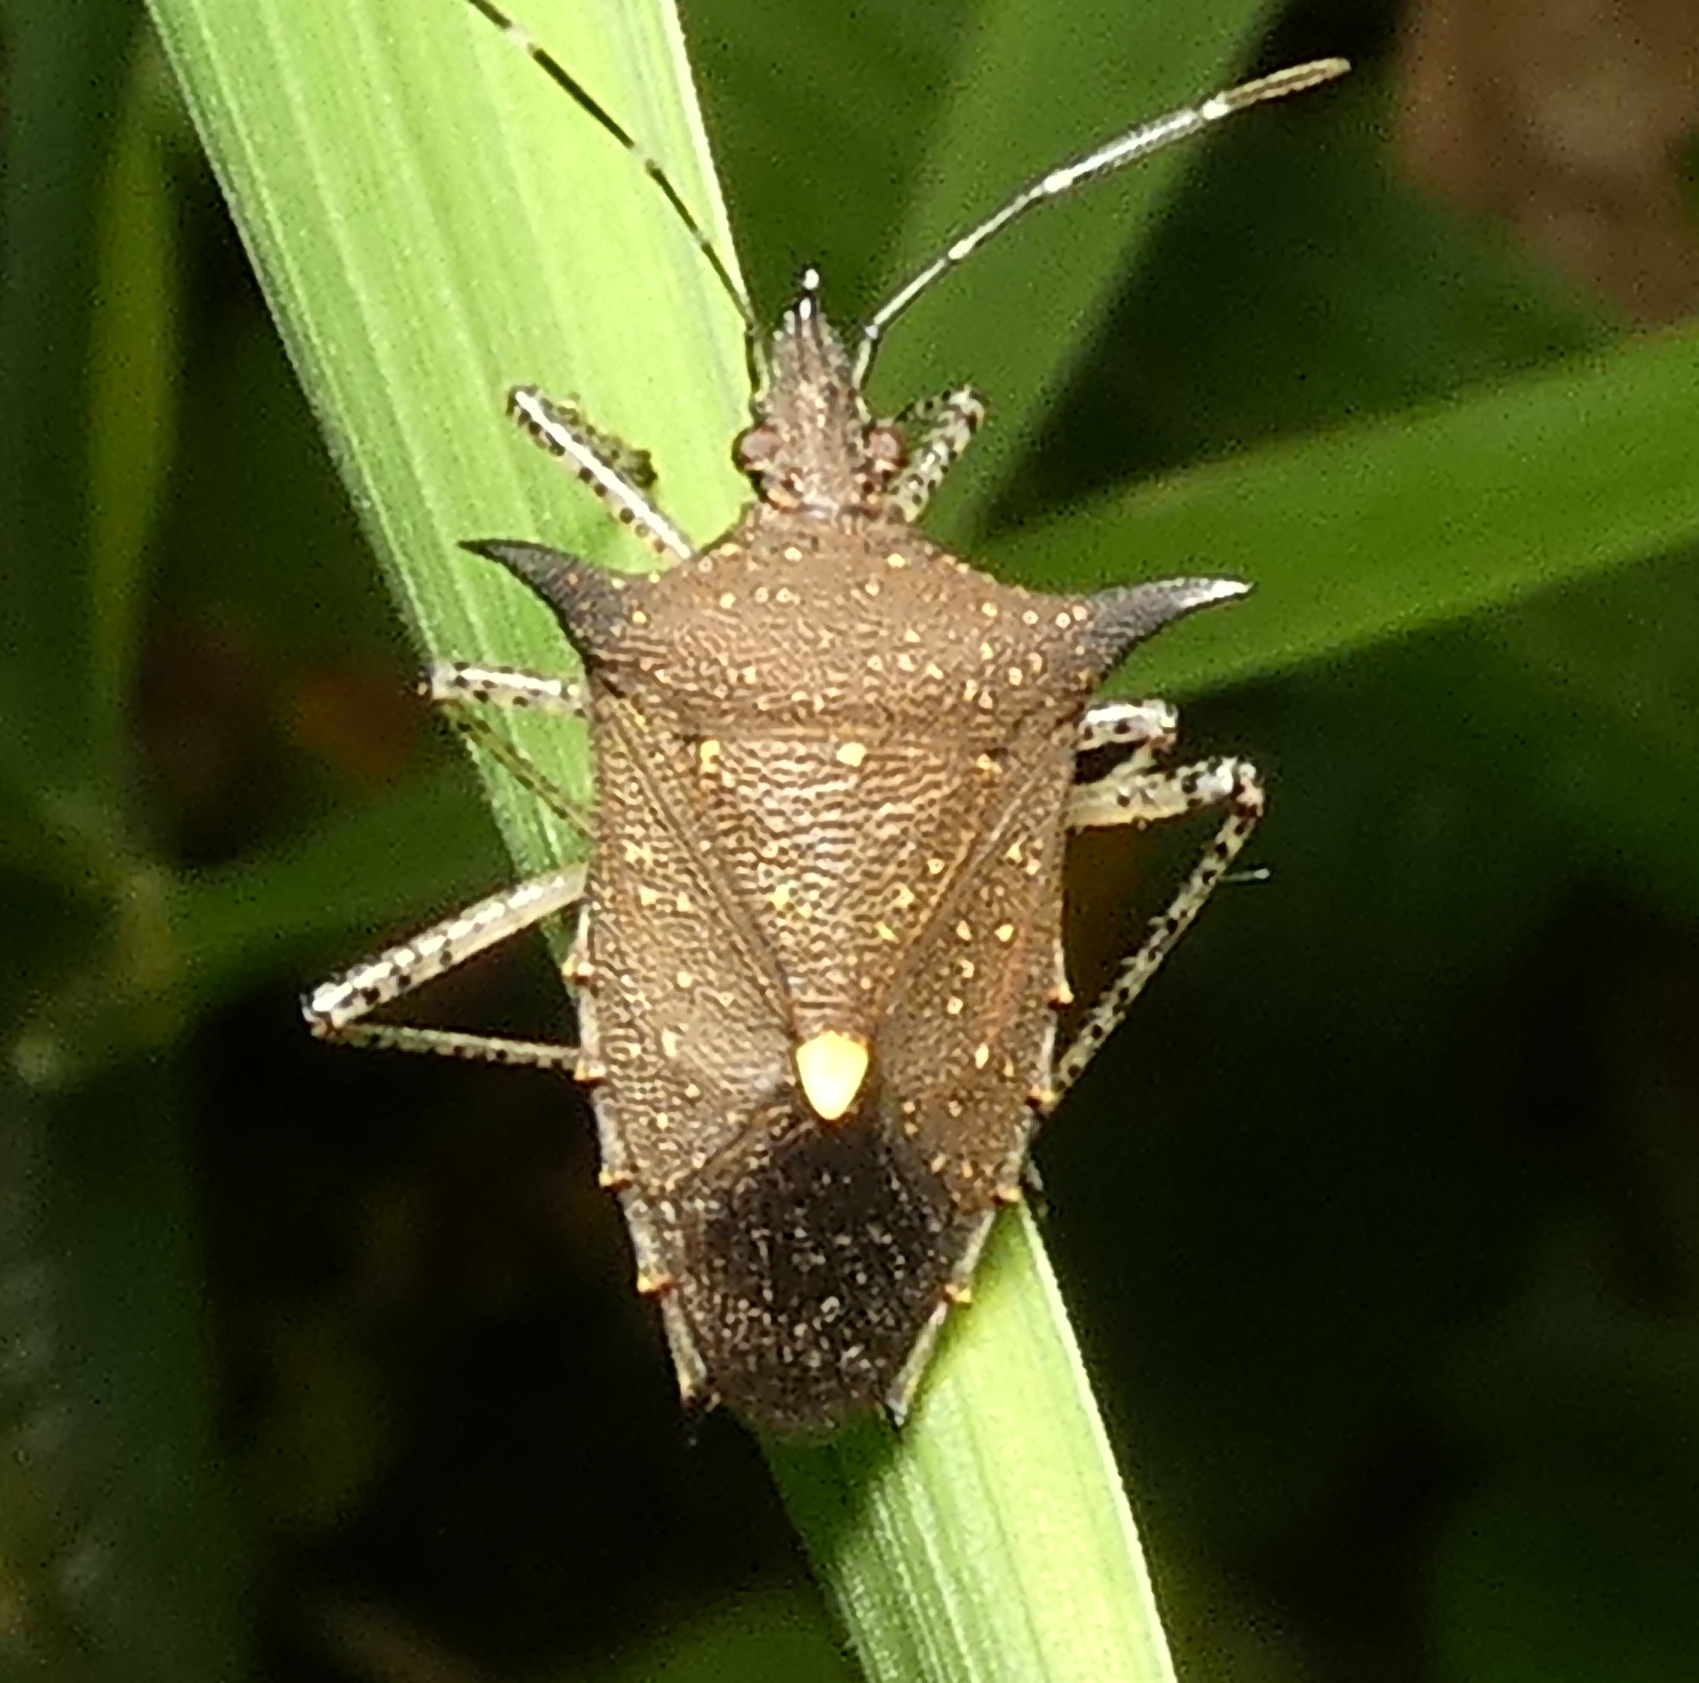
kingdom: Animalia
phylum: Arthropoda
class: Insecta
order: Hemiptera
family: Pentatomidae
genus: Proxys
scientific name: Proxys albopunctulatus
